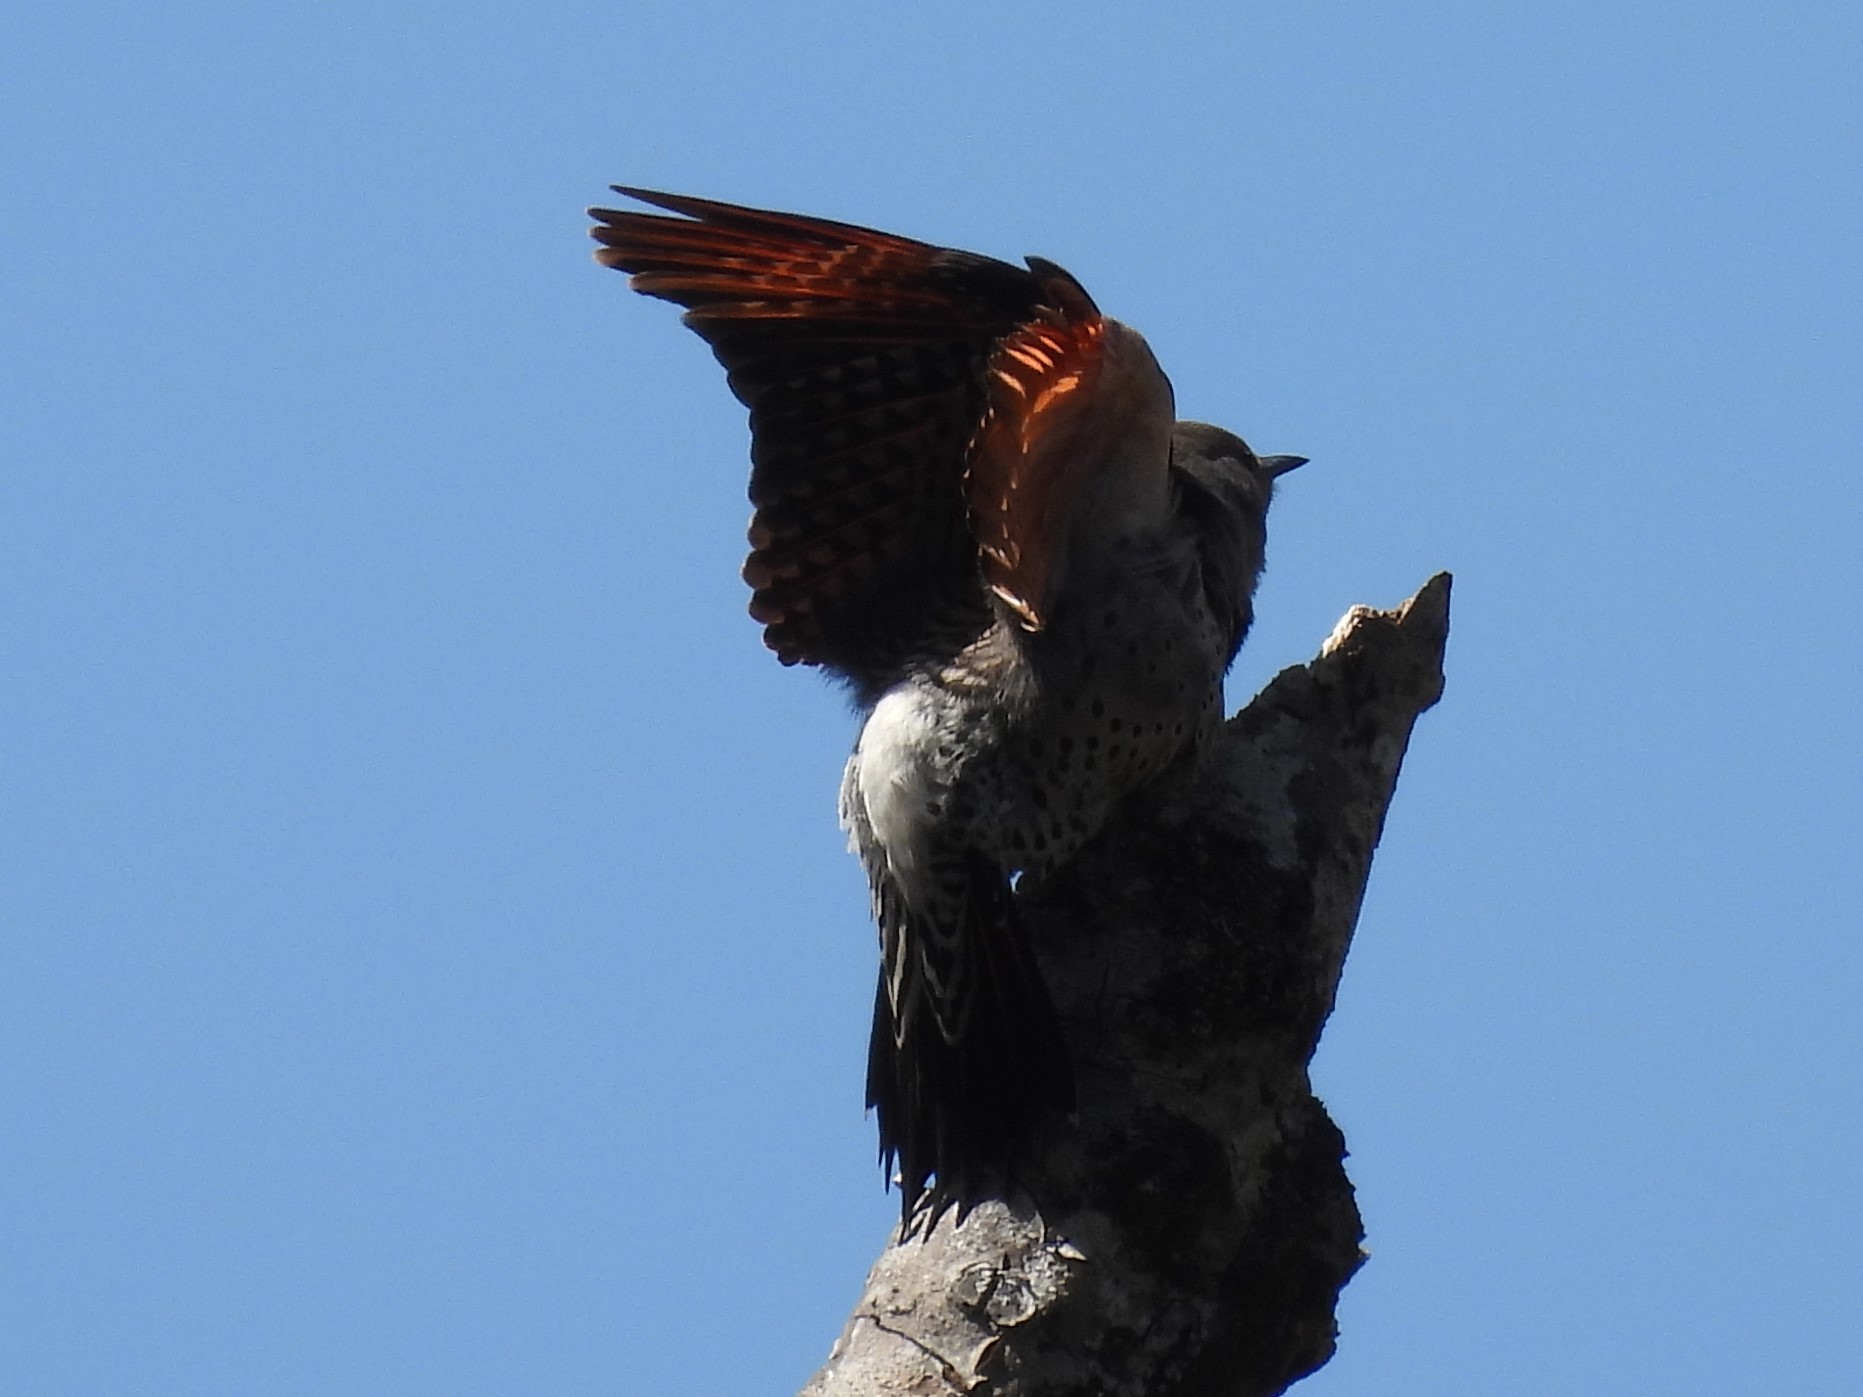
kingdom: Animalia
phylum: Chordata
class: Aves
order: Piciformes
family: Picidae
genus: Colaptes
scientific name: Colaptes auratus
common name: Northern flicker
